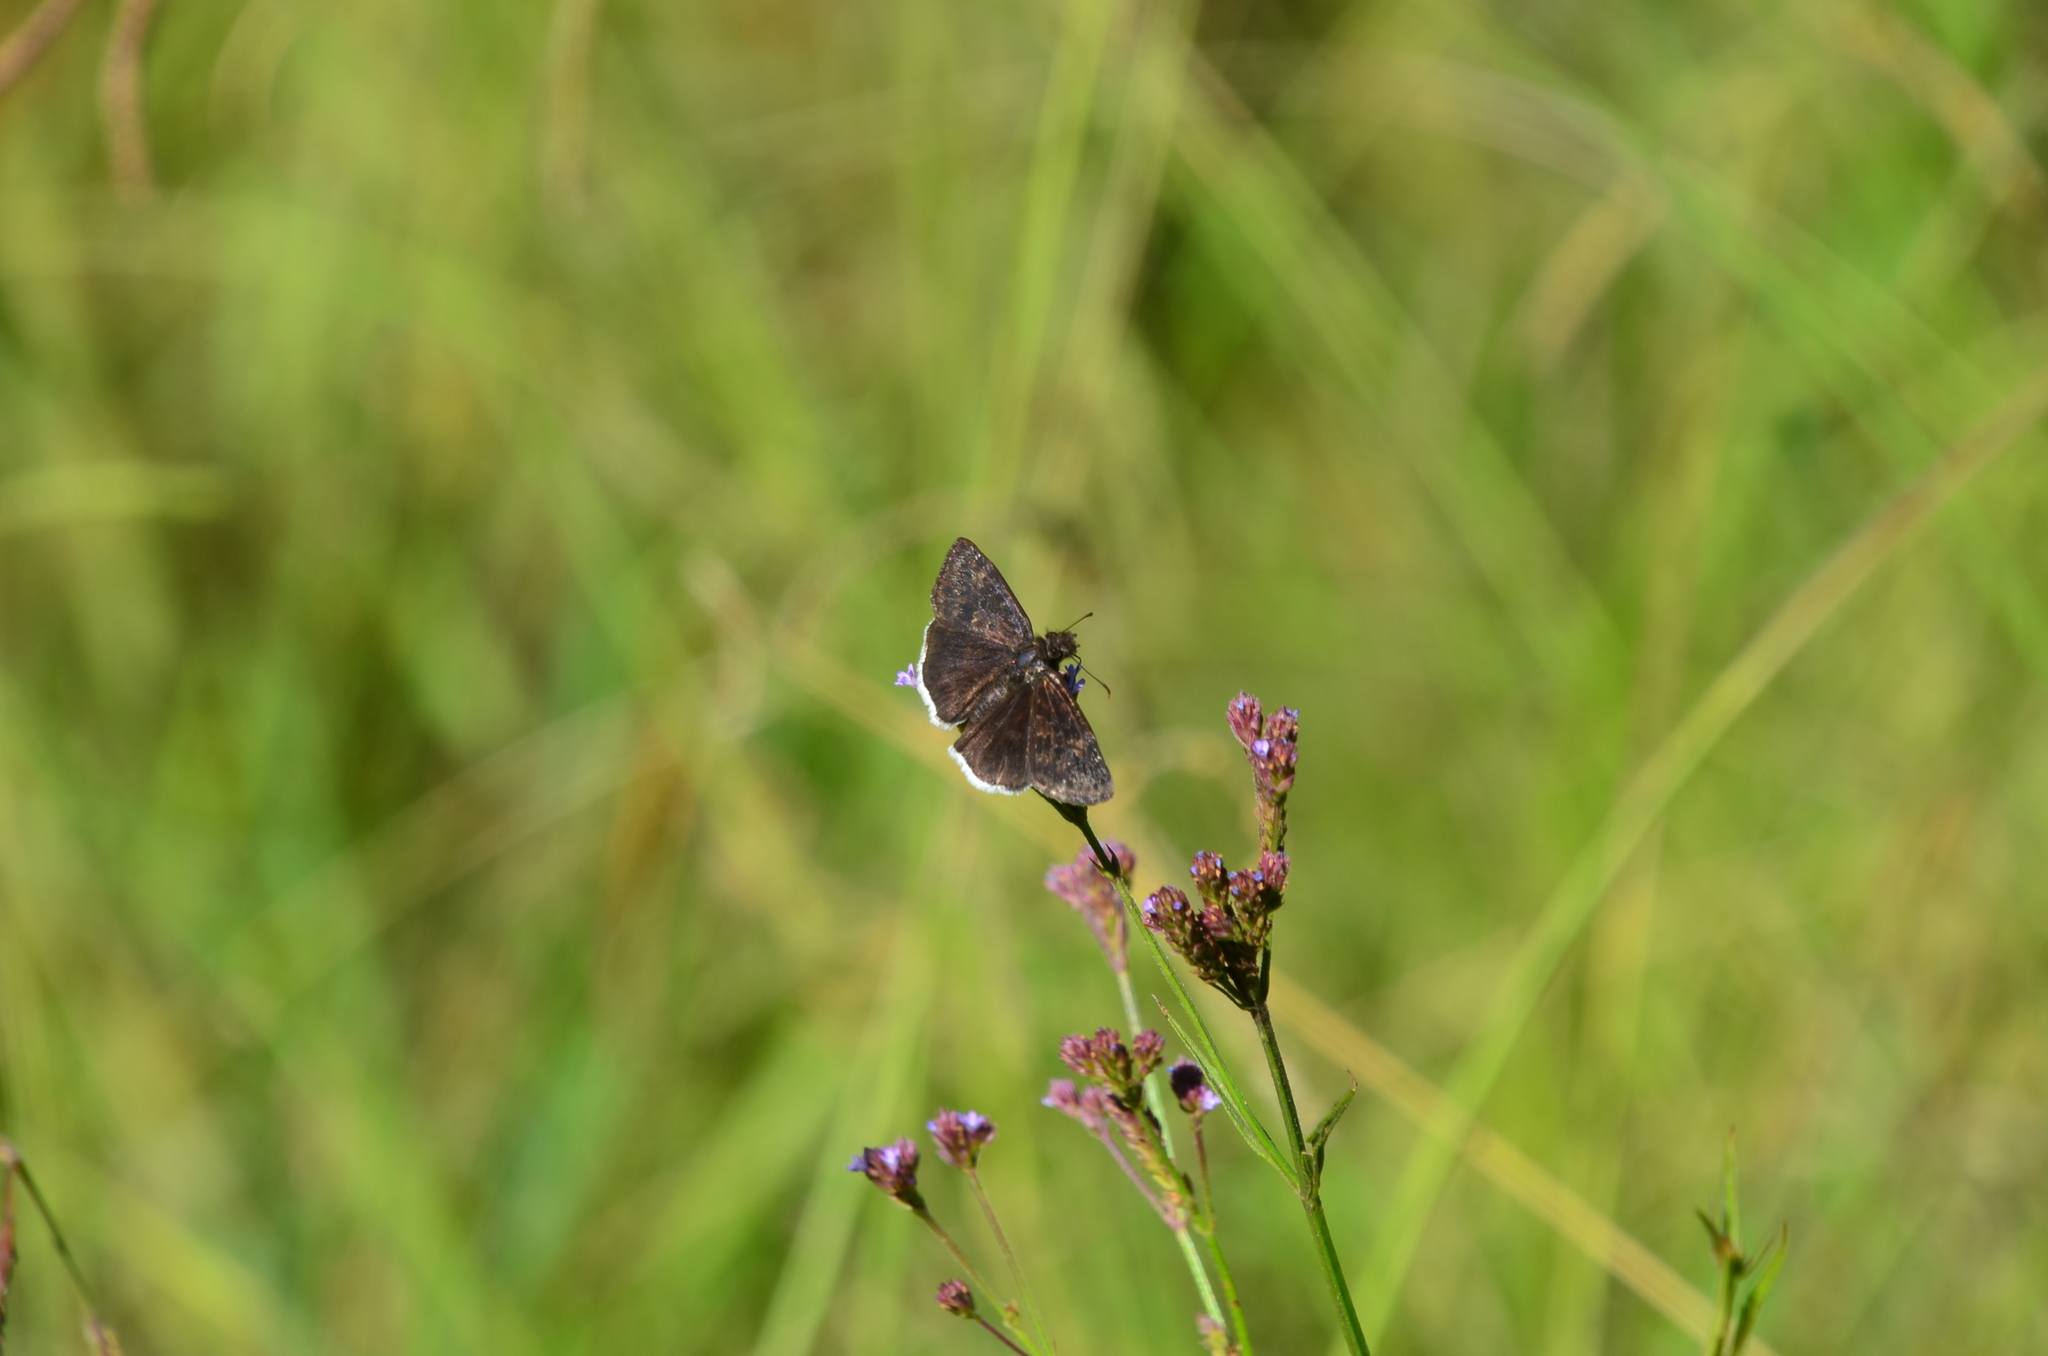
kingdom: Animalia
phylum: Arthropoda
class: Insecta
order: Lepidoptera
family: Hesperiidae
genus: Erynnis
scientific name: Erynnis funeralis
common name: Funereal duskywing
